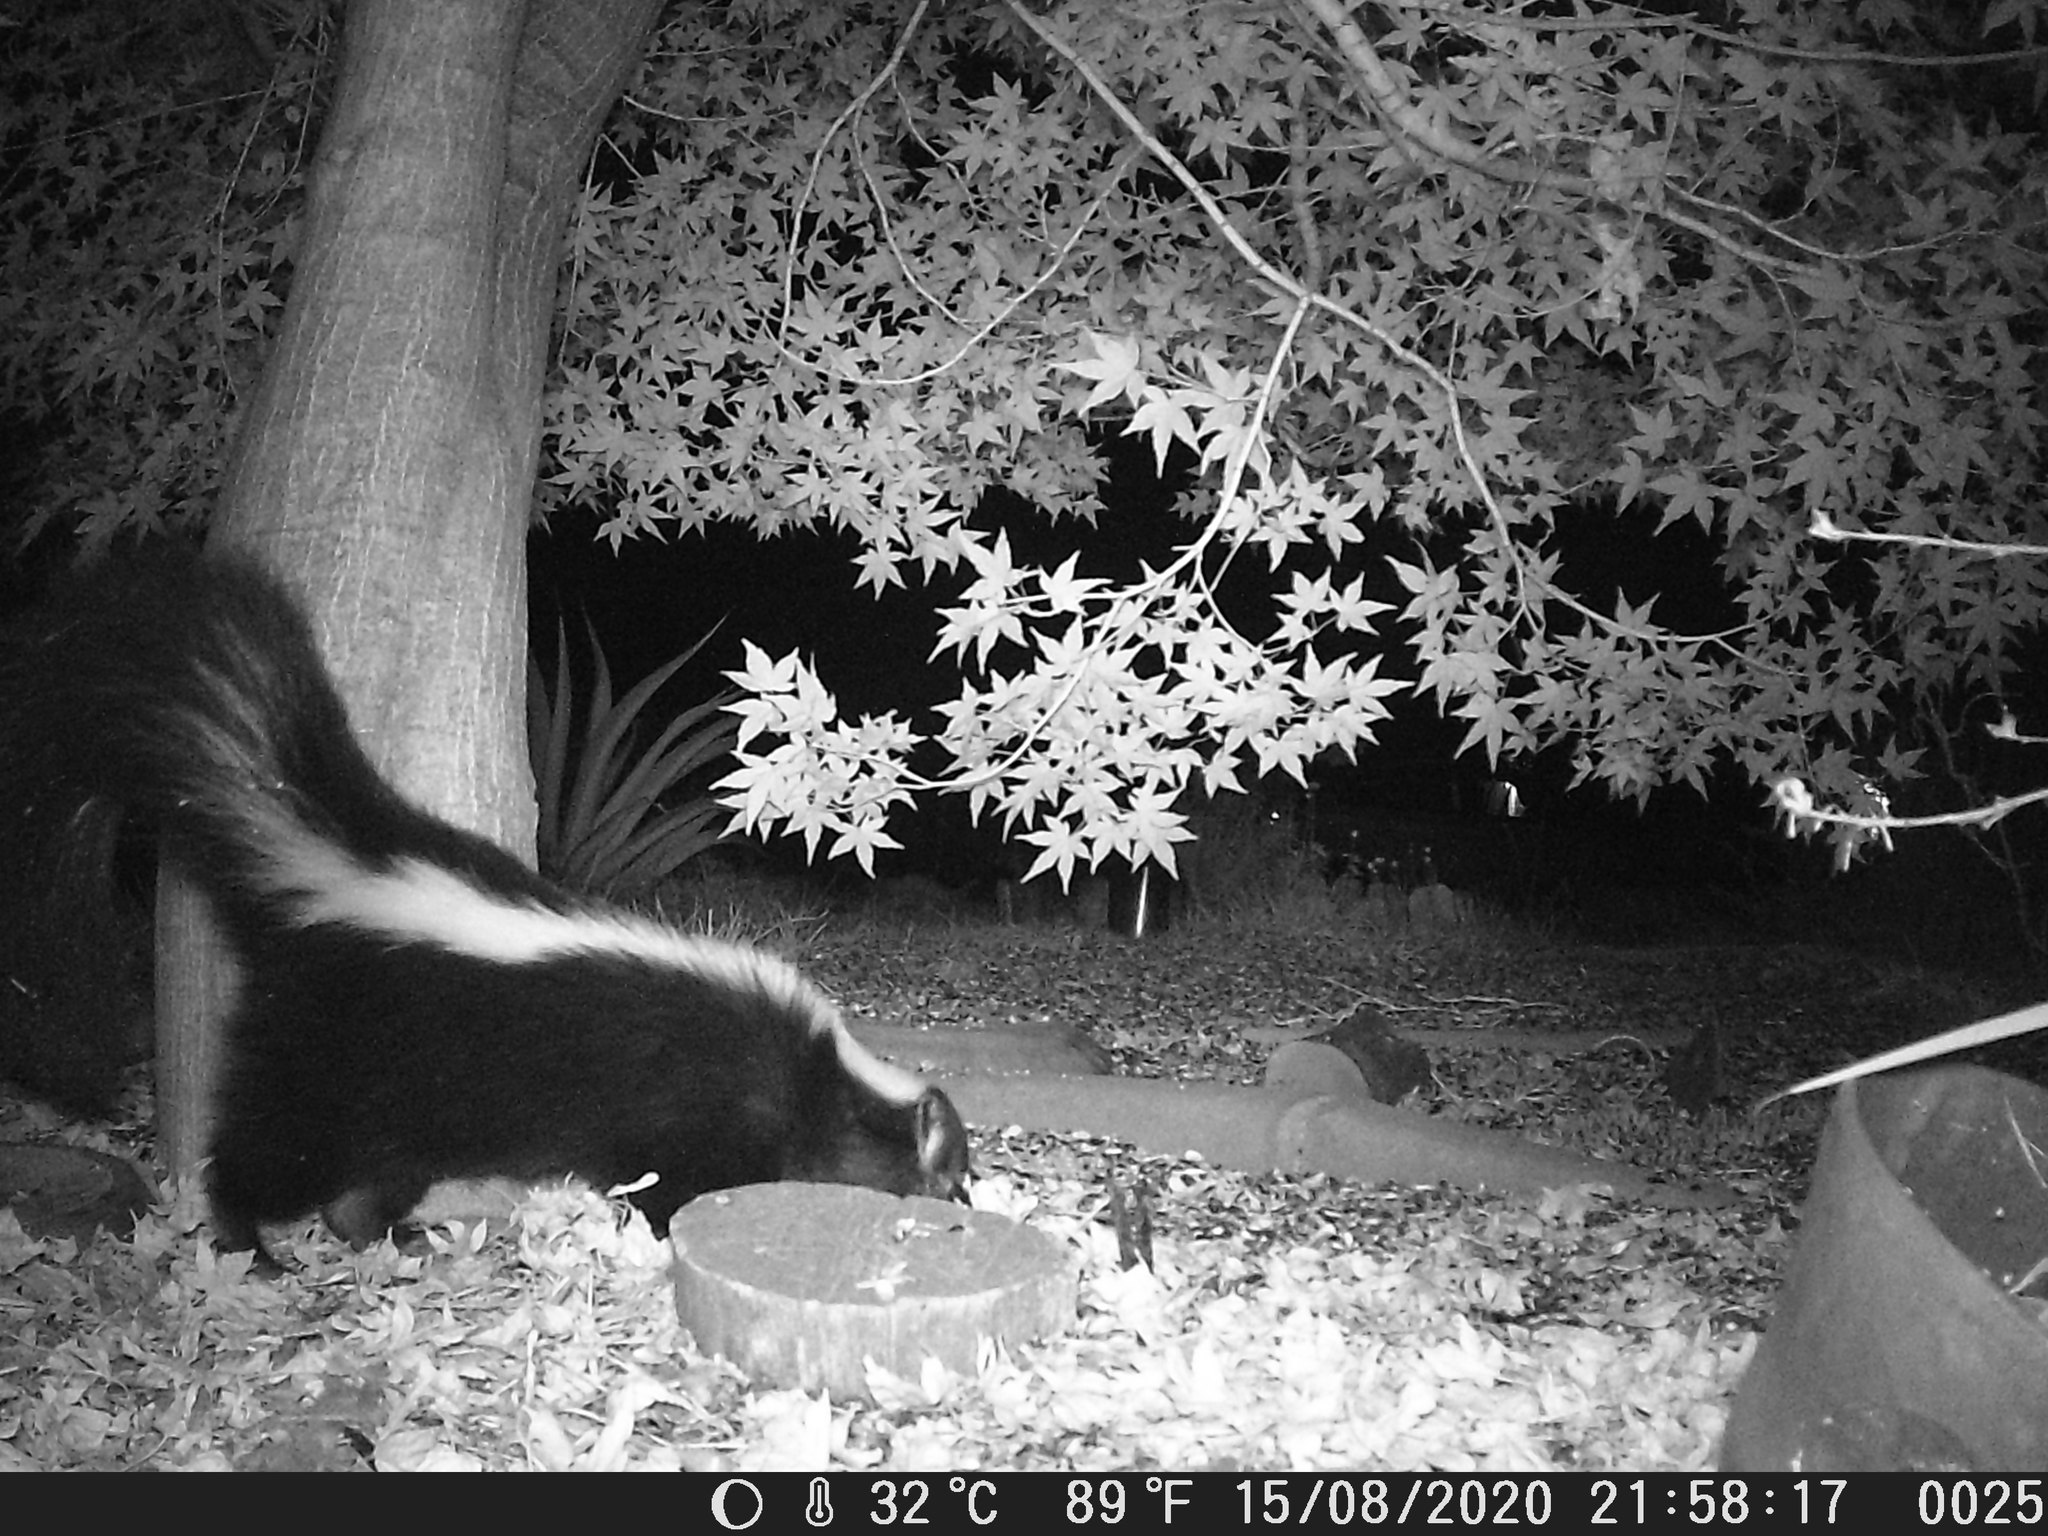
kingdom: Animalia
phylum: Chordata
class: Mammalia
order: Carnivora
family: Mephitidae
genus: Mephitis
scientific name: Mephitis mephitis
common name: Striped skunk
